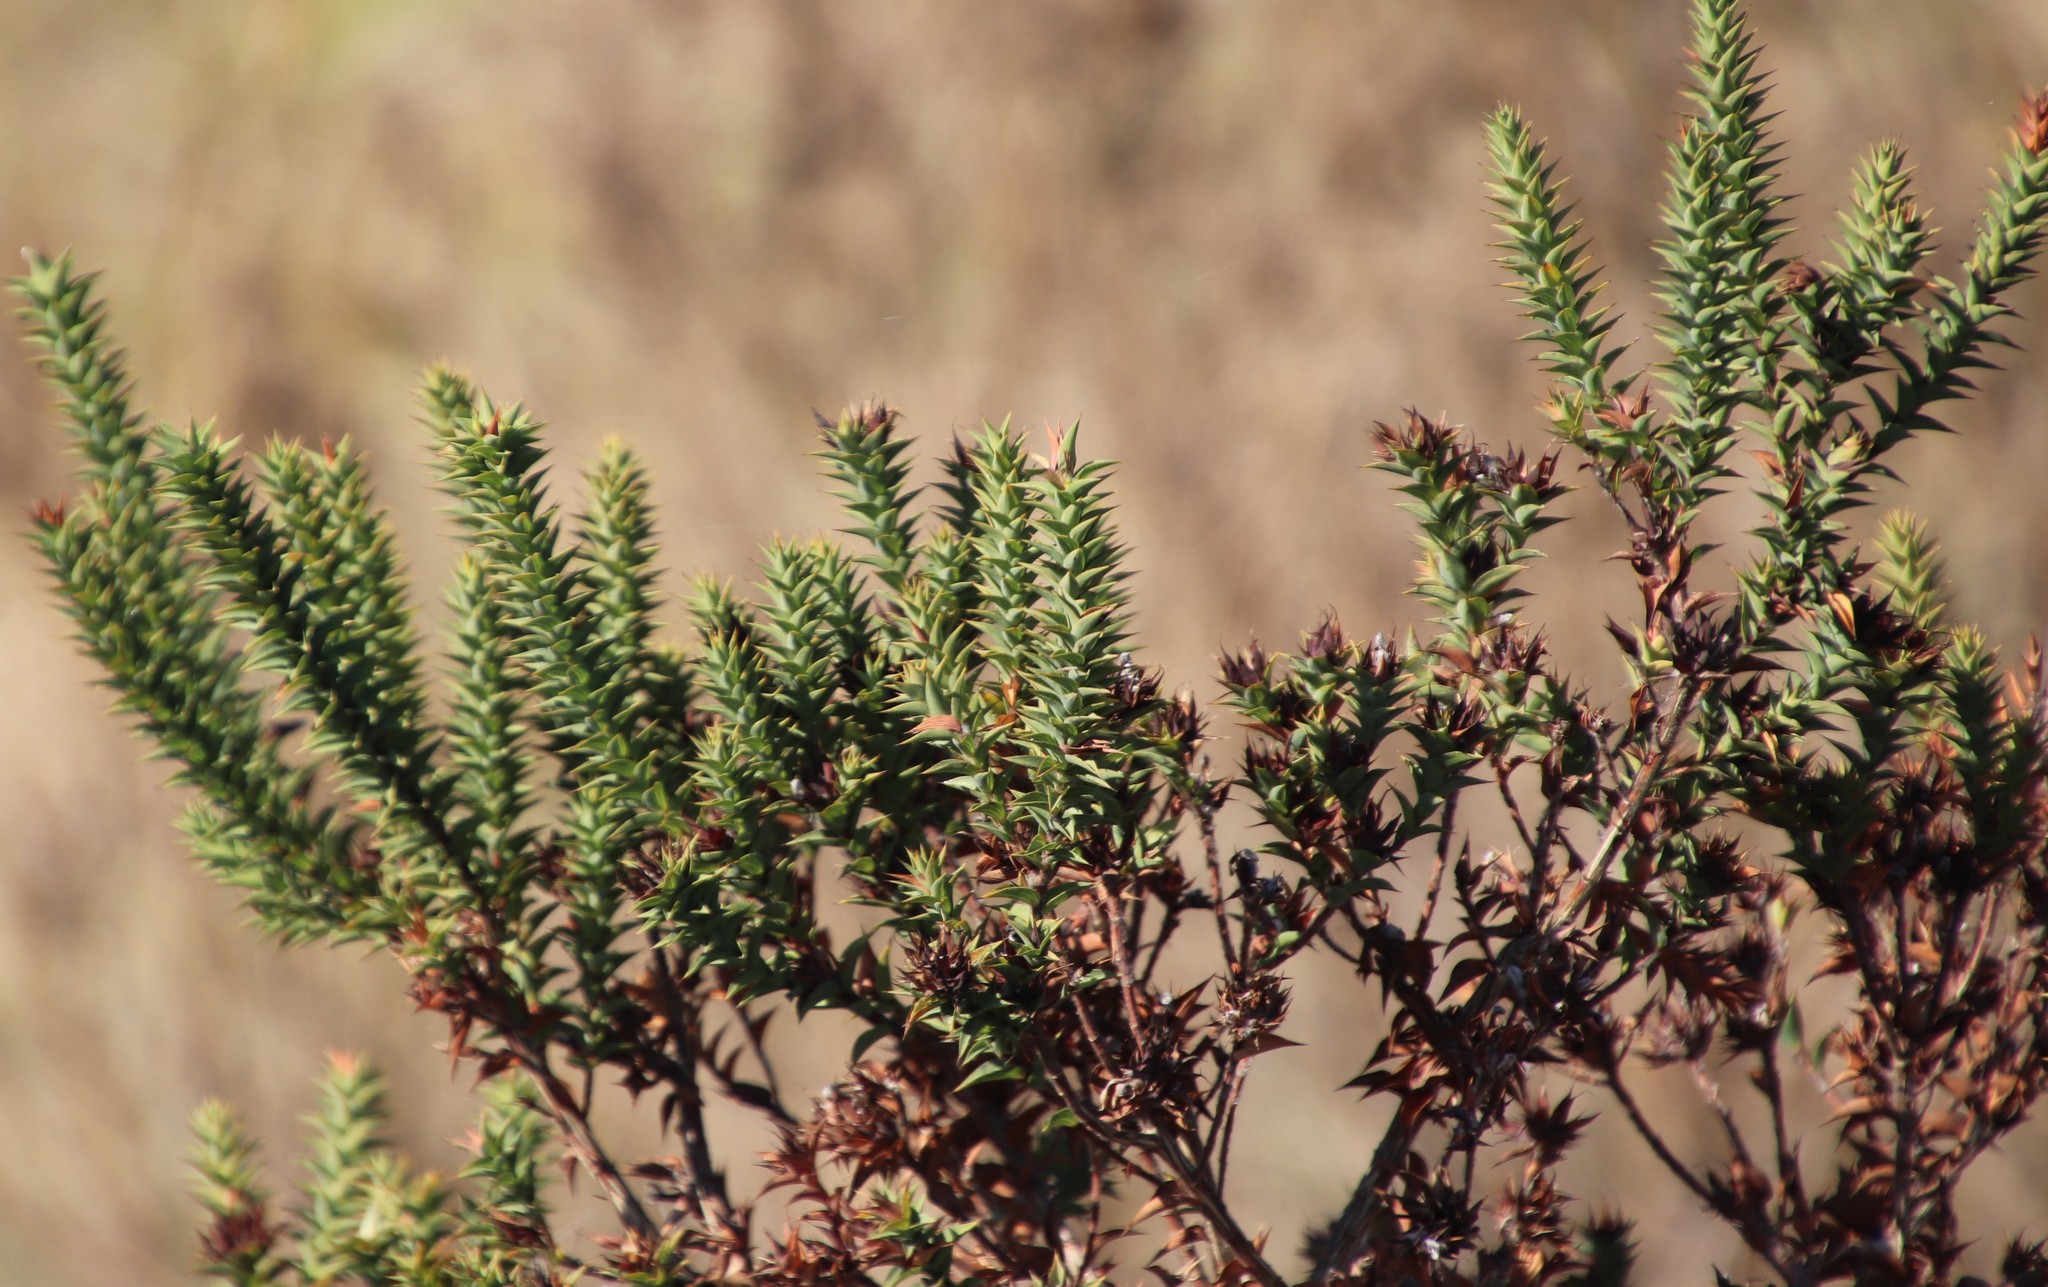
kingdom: Plantae
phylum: Tracheophyta
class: Magnoliopsida
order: Fabales
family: Fabaceae
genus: Aspalathus
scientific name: Aspalathus cordata
